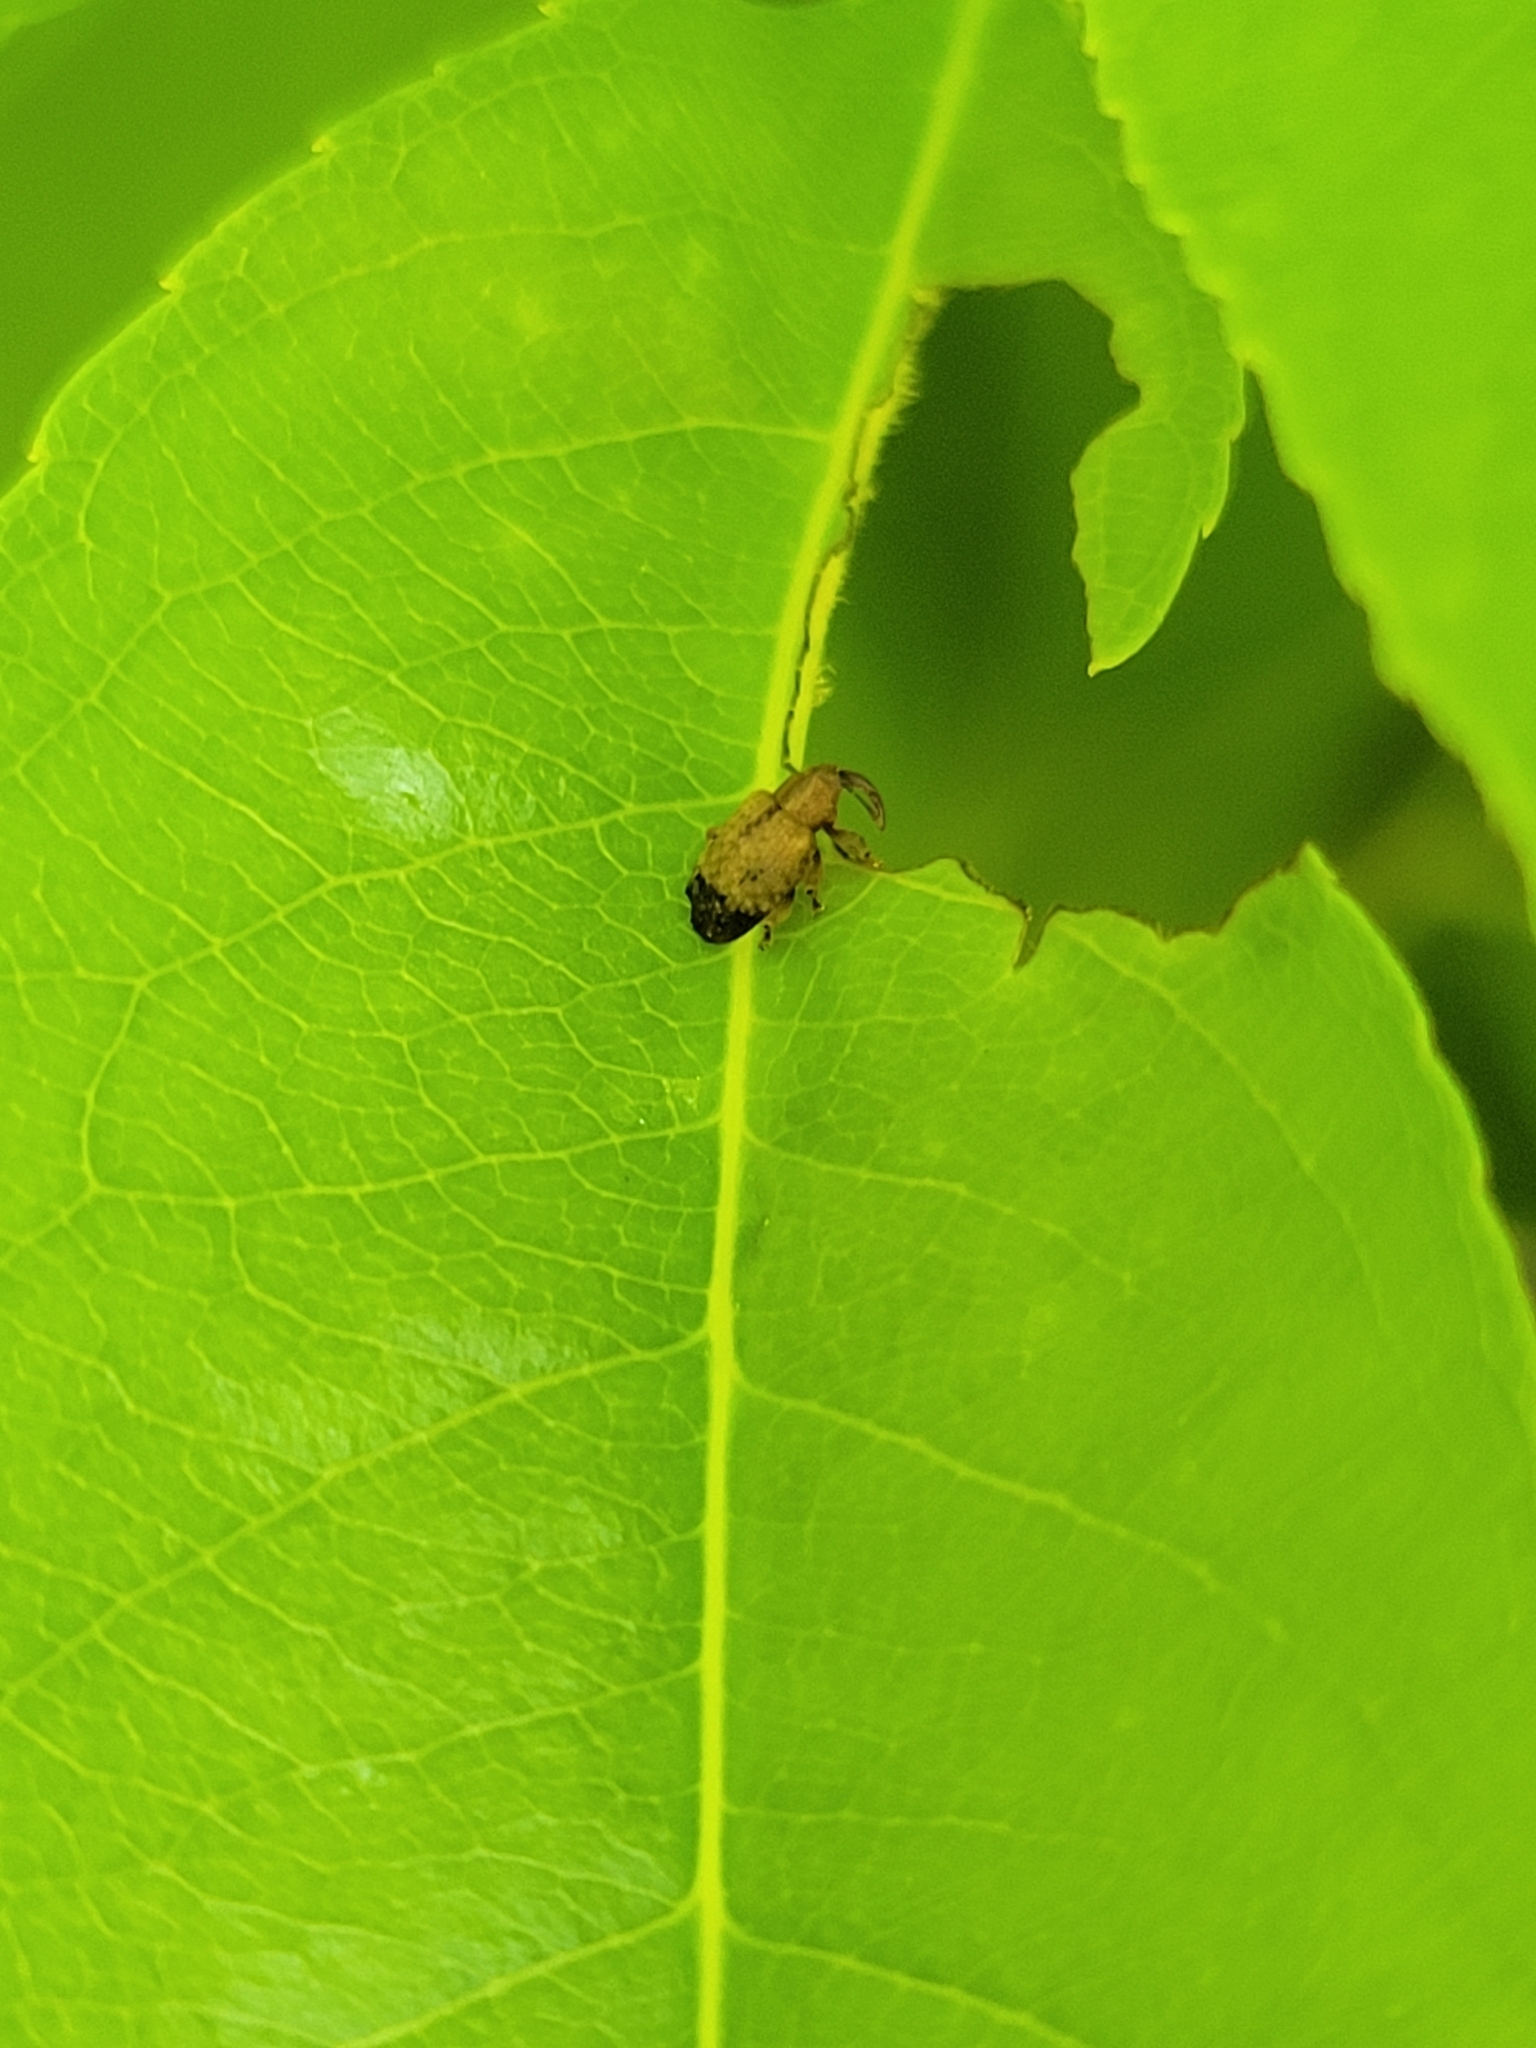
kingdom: Animalia
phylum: Arthropoda
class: Insecta
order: Coleoptera
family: Curculionidae
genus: Ochyromera
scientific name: Ochyromera ligustri
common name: Weevil
